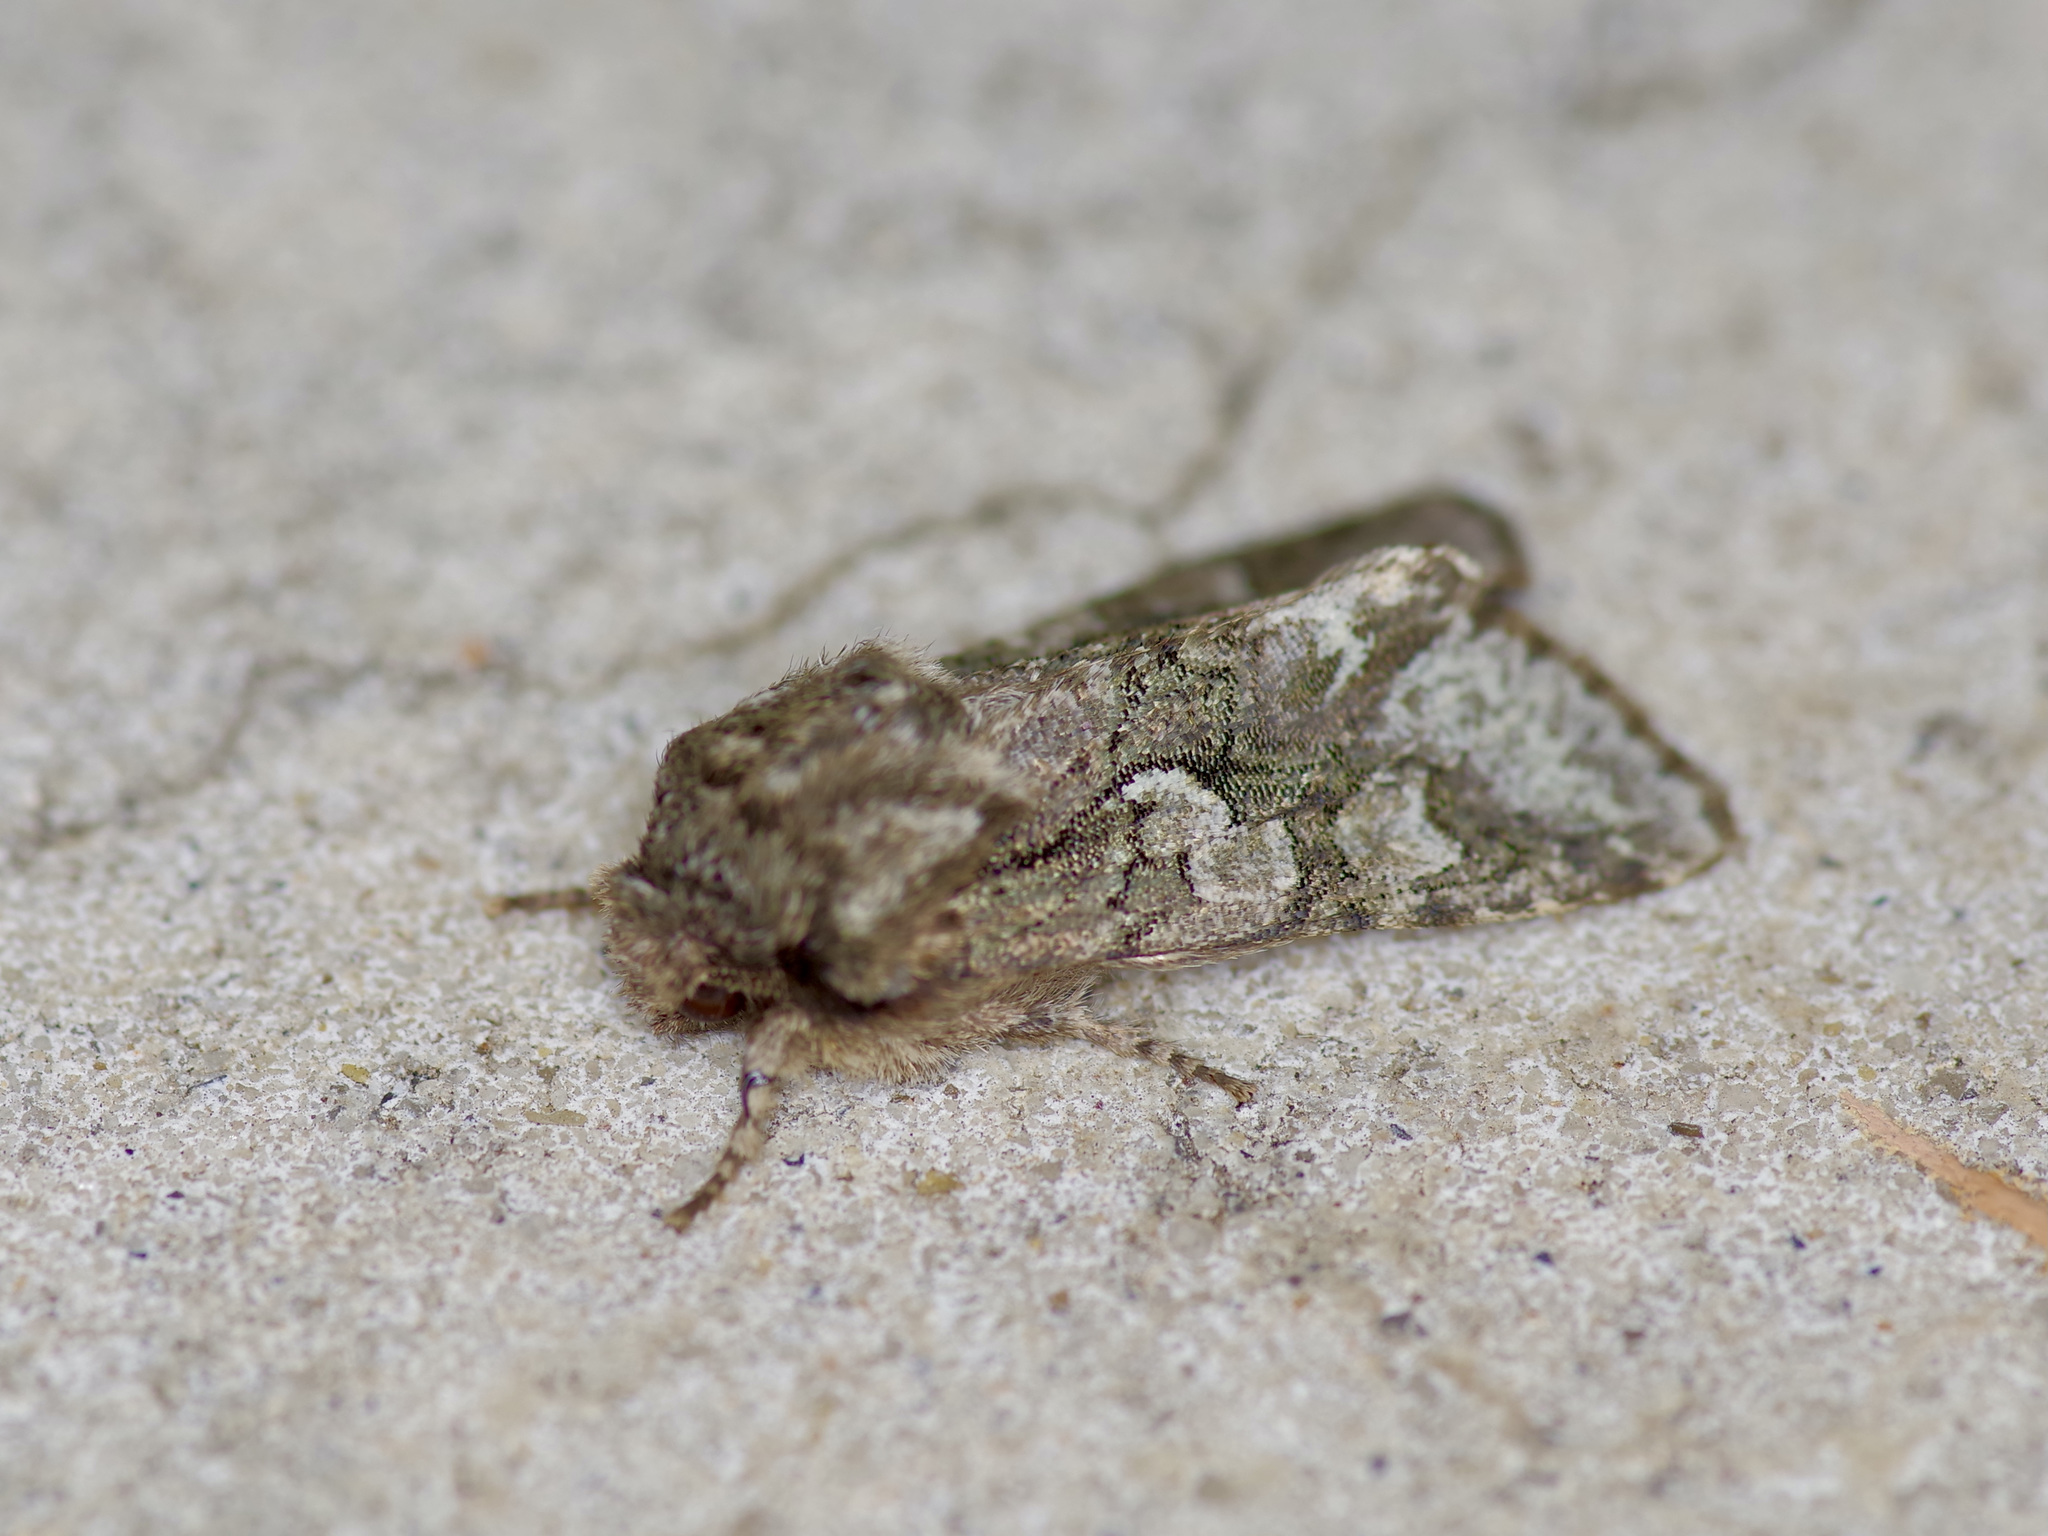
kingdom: Animalia
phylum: Arthropoda
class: Insecta
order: Lepidoptera
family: Noctuidae
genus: Psaphida
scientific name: Psaphida resumens
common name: Figure-eight sallow
